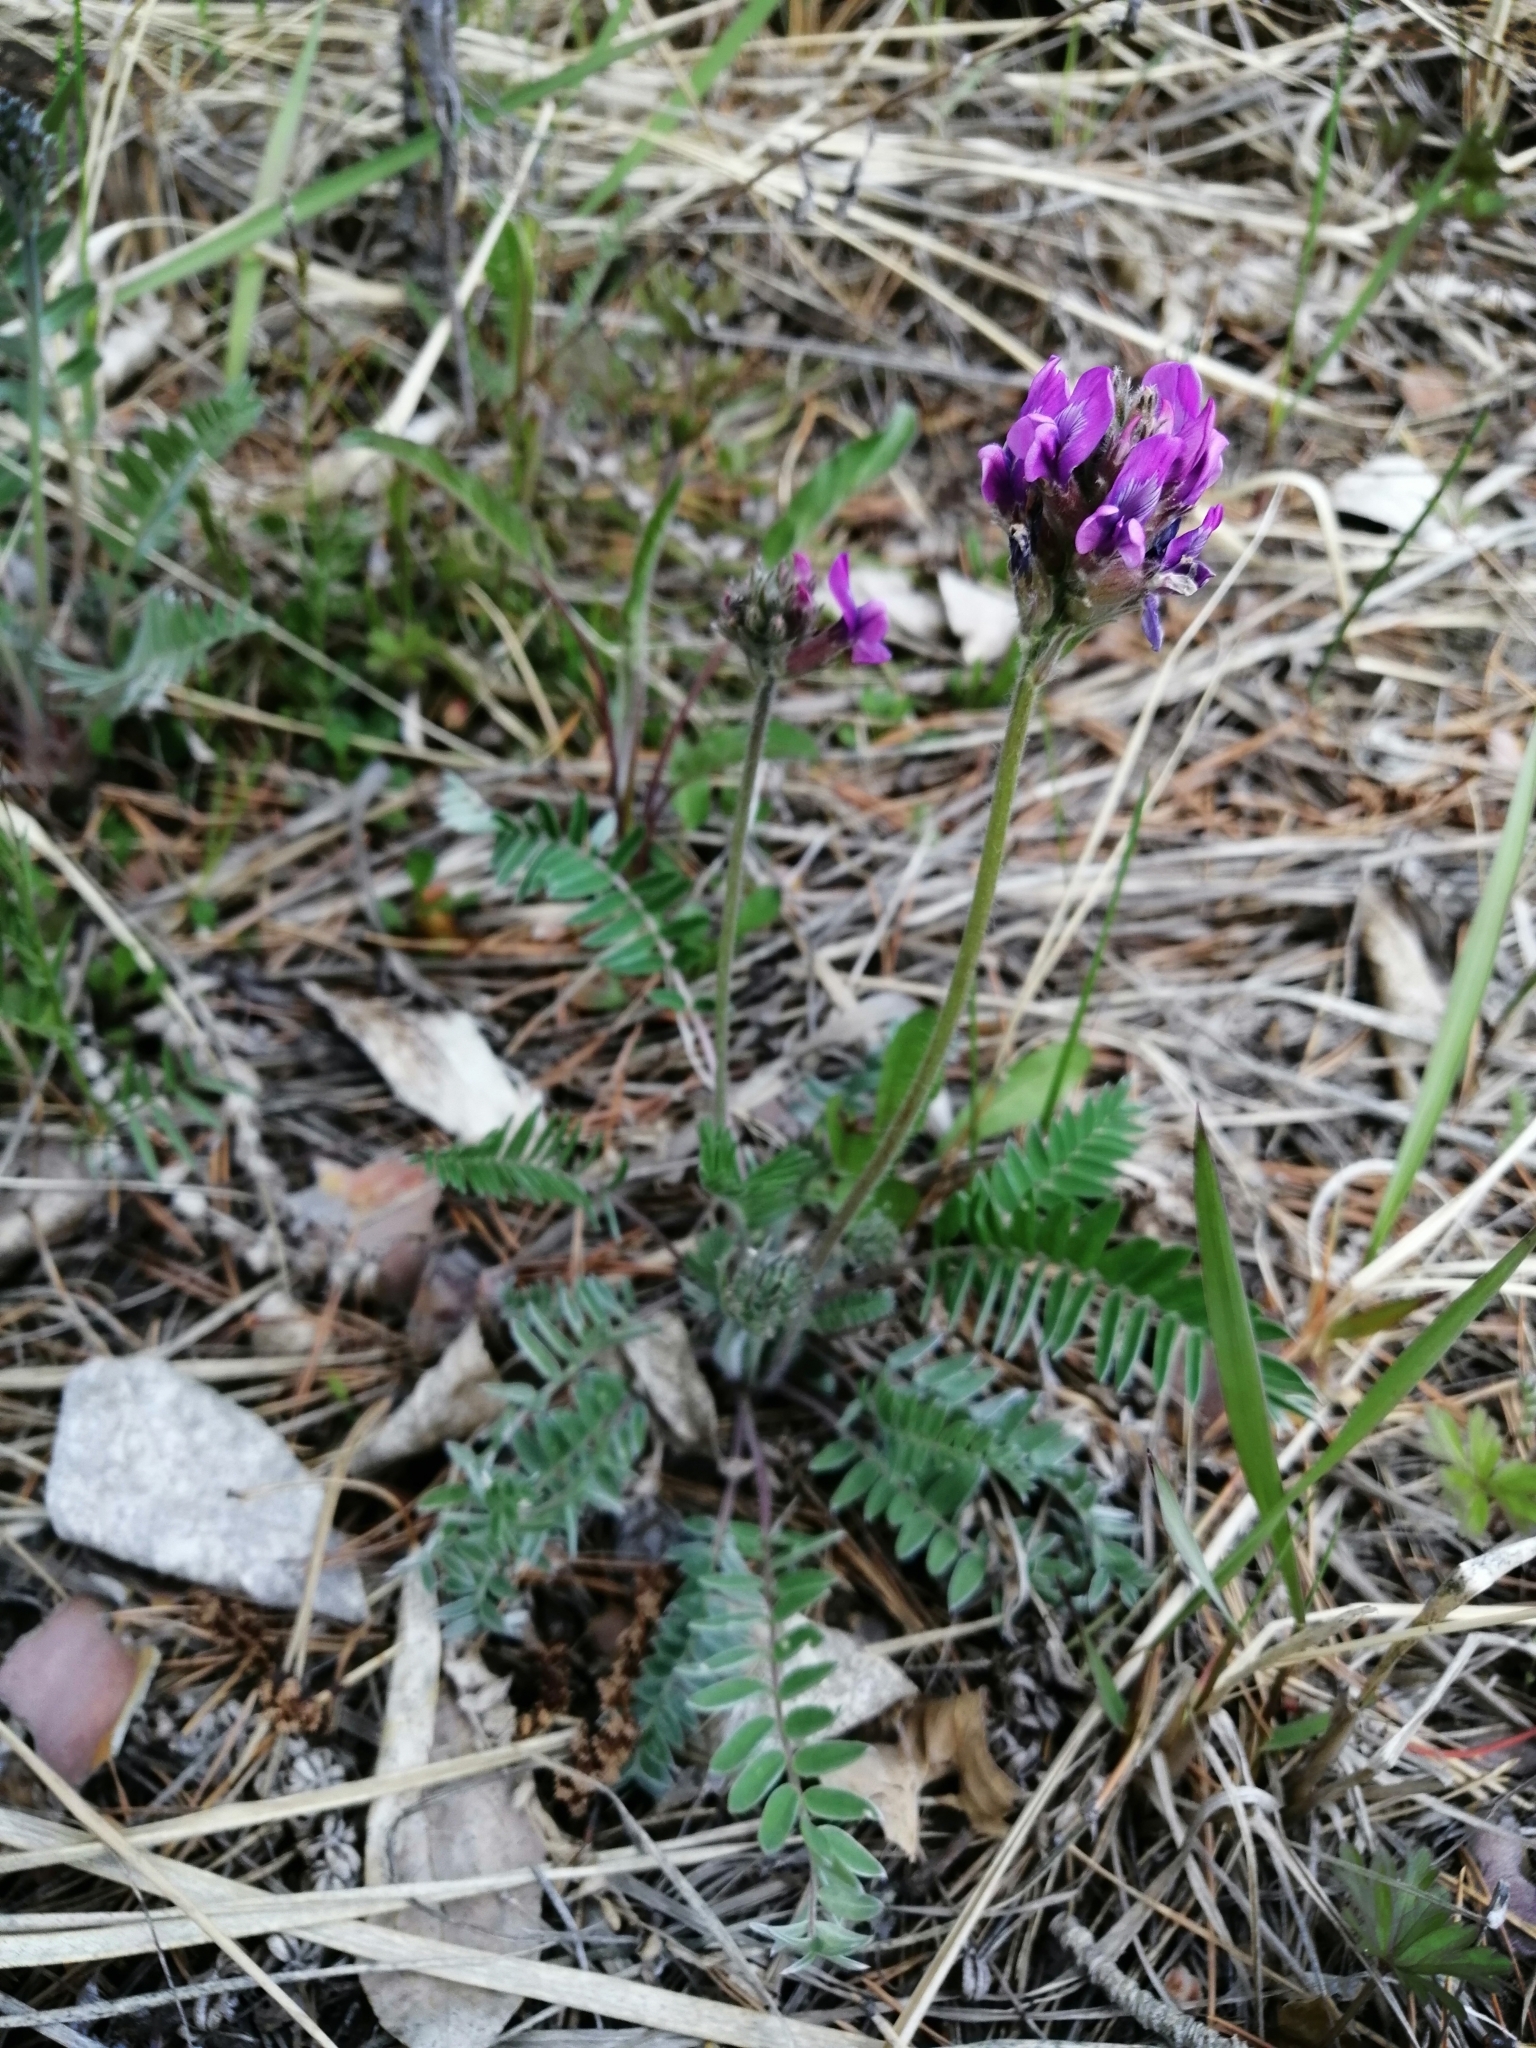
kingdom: Plantae
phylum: Tracheophyta
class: Magnoliopsida
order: Fabales
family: Fabaceae
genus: Oxytropis
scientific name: Oxytropis strobilacea
